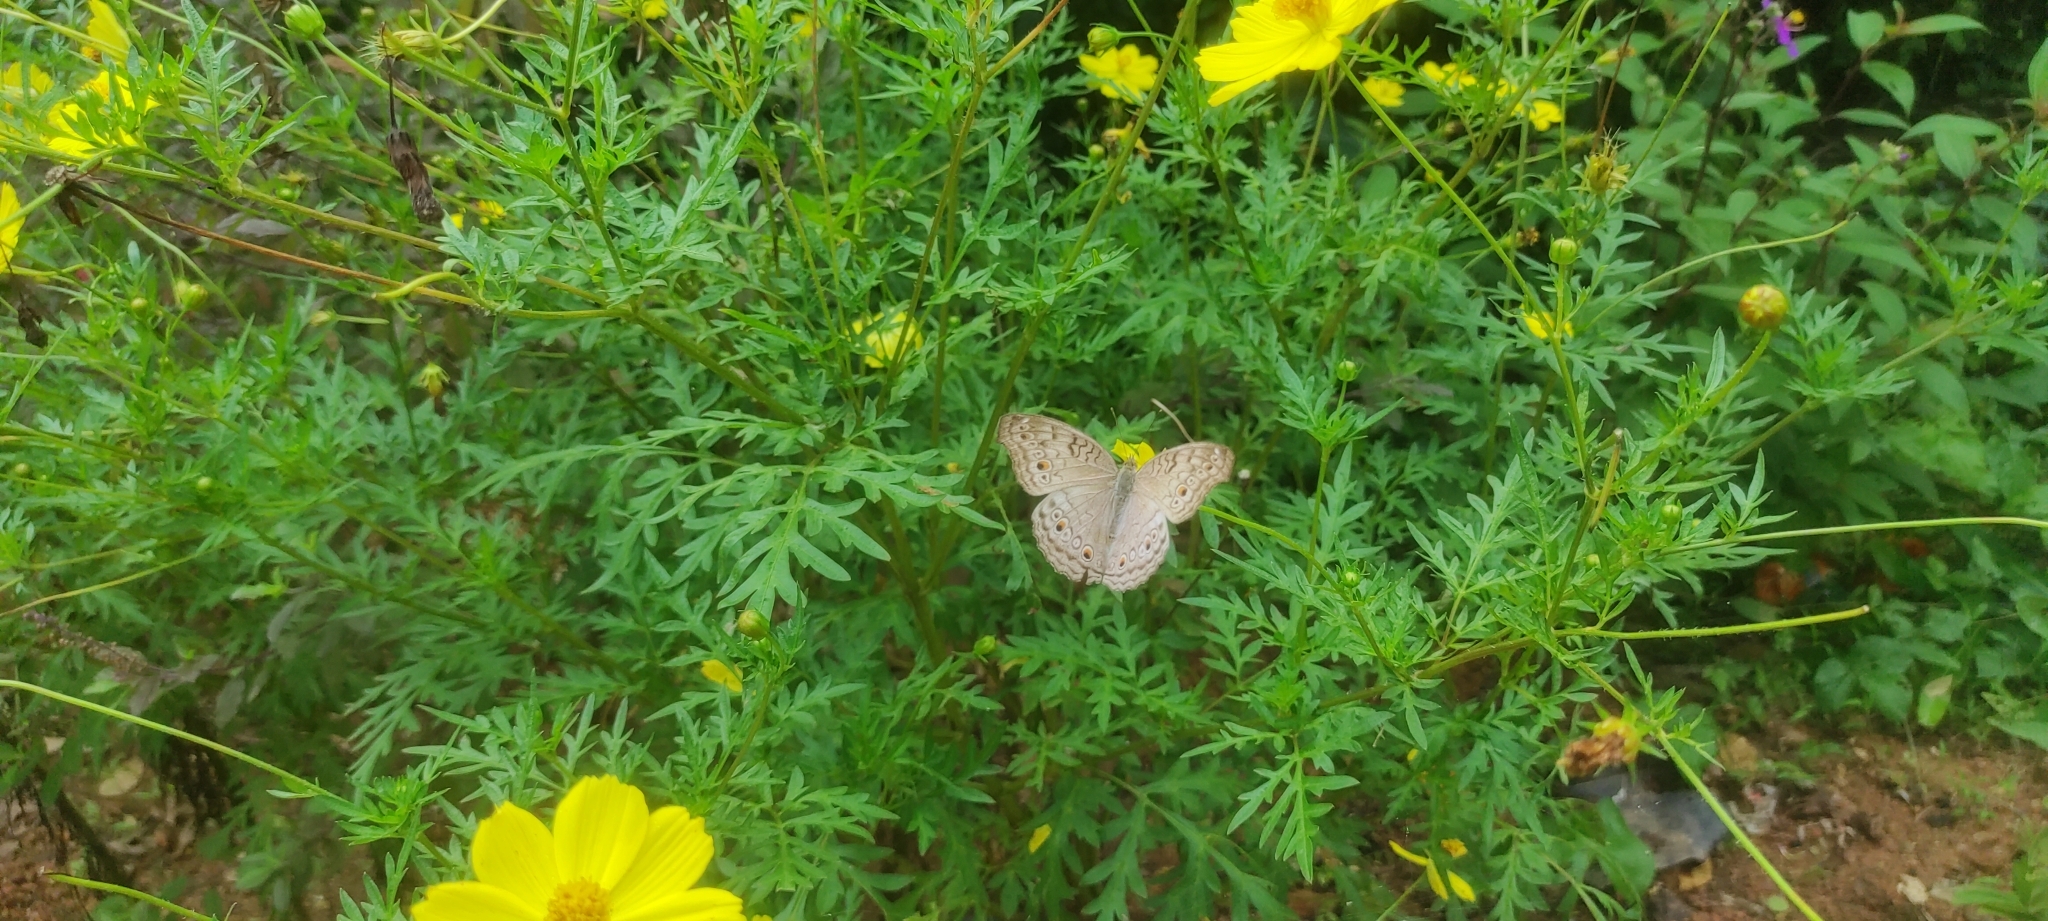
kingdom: Animalia
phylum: Arthropoda
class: Insecta
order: Lepidoptera
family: Nymphalidae
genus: Junonia
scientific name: Junonia atlites
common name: Grey pansy
